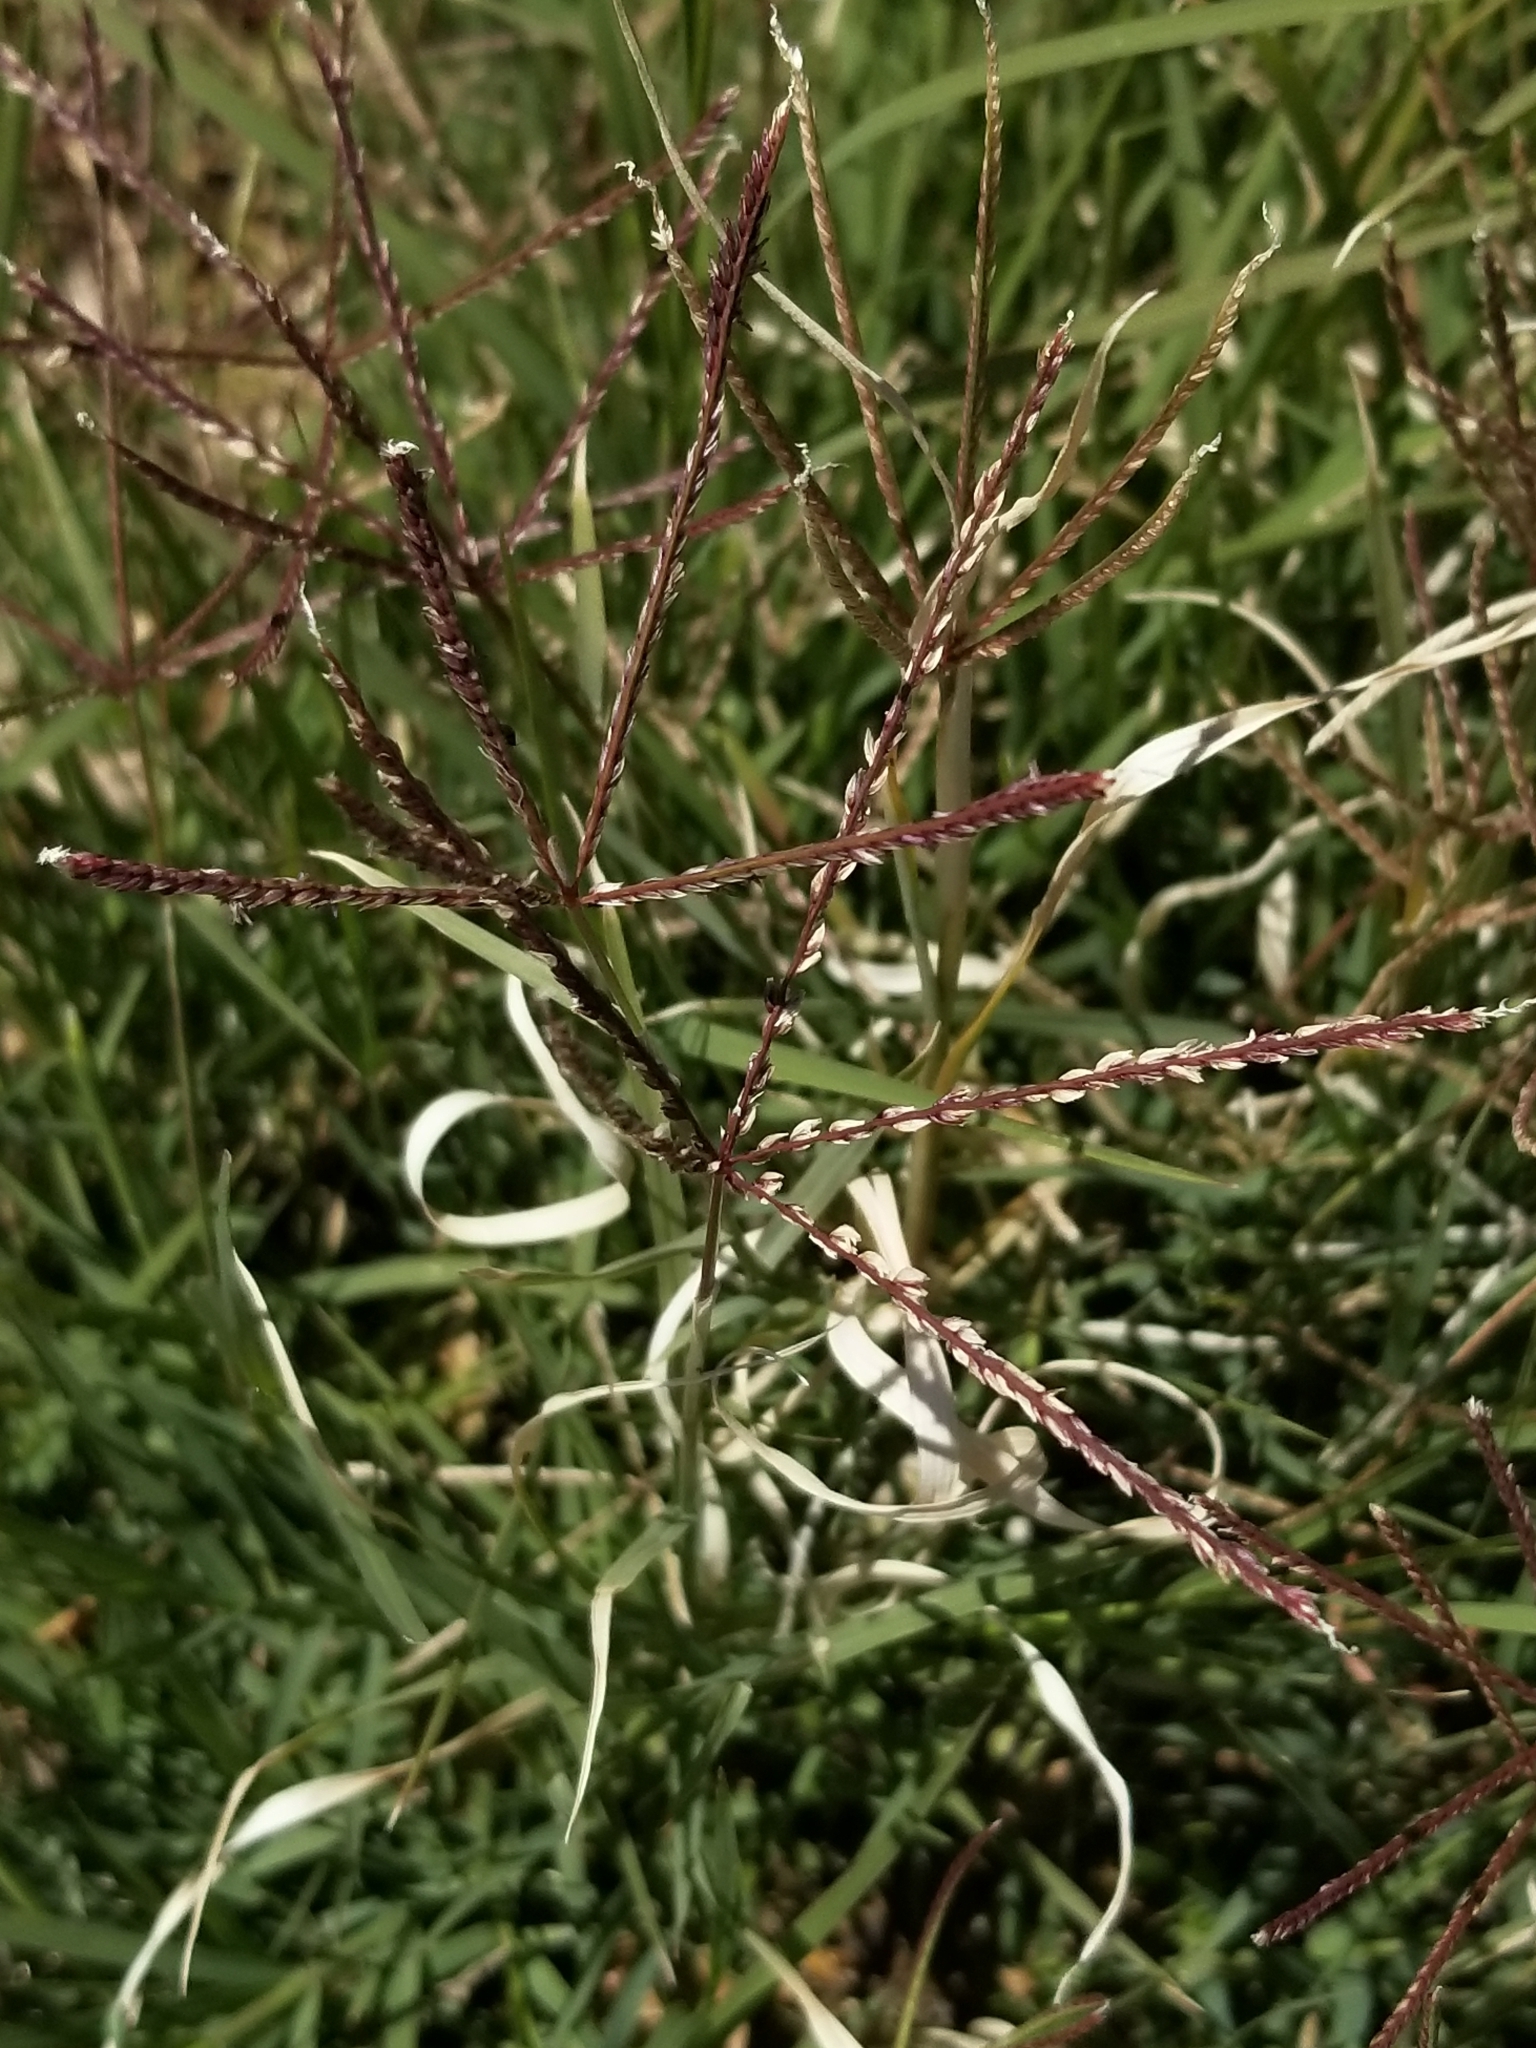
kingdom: Plantae
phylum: Tracheophyta
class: Liliopsida
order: Poales
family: Poaceae
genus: Cynodon
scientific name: Cynodon dactylon
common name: Bermuda grass
